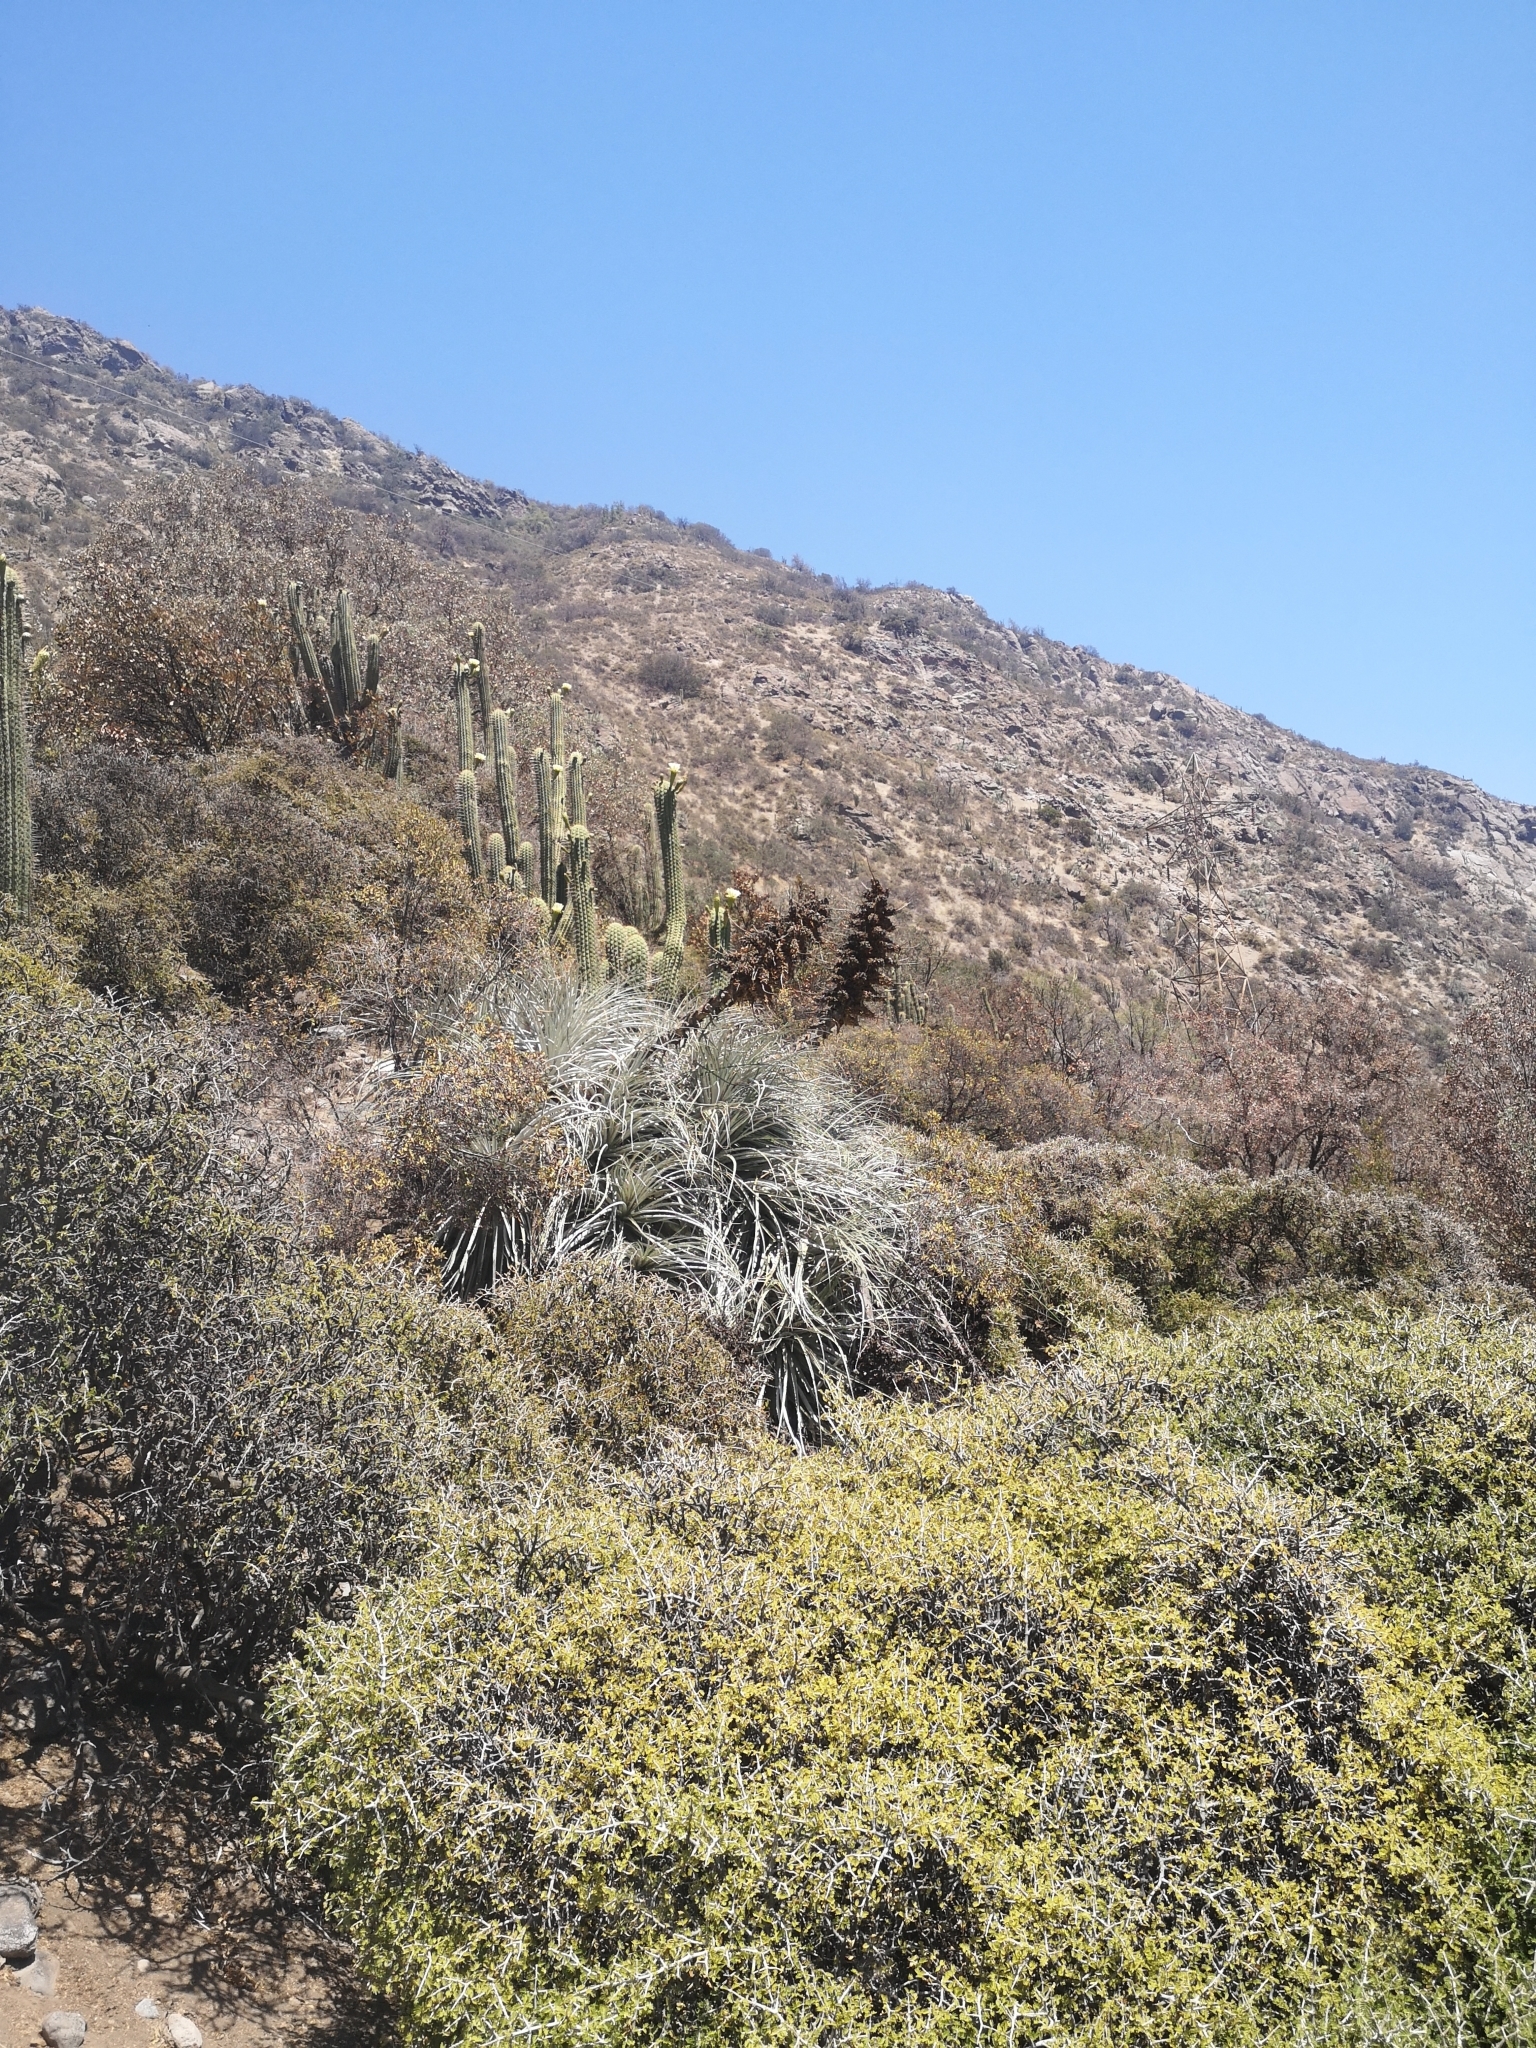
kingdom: Plantae
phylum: Tracheophyta
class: Liliopsida
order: Poales
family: Bromeliaceae
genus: Puya
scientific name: Puya alpestris
